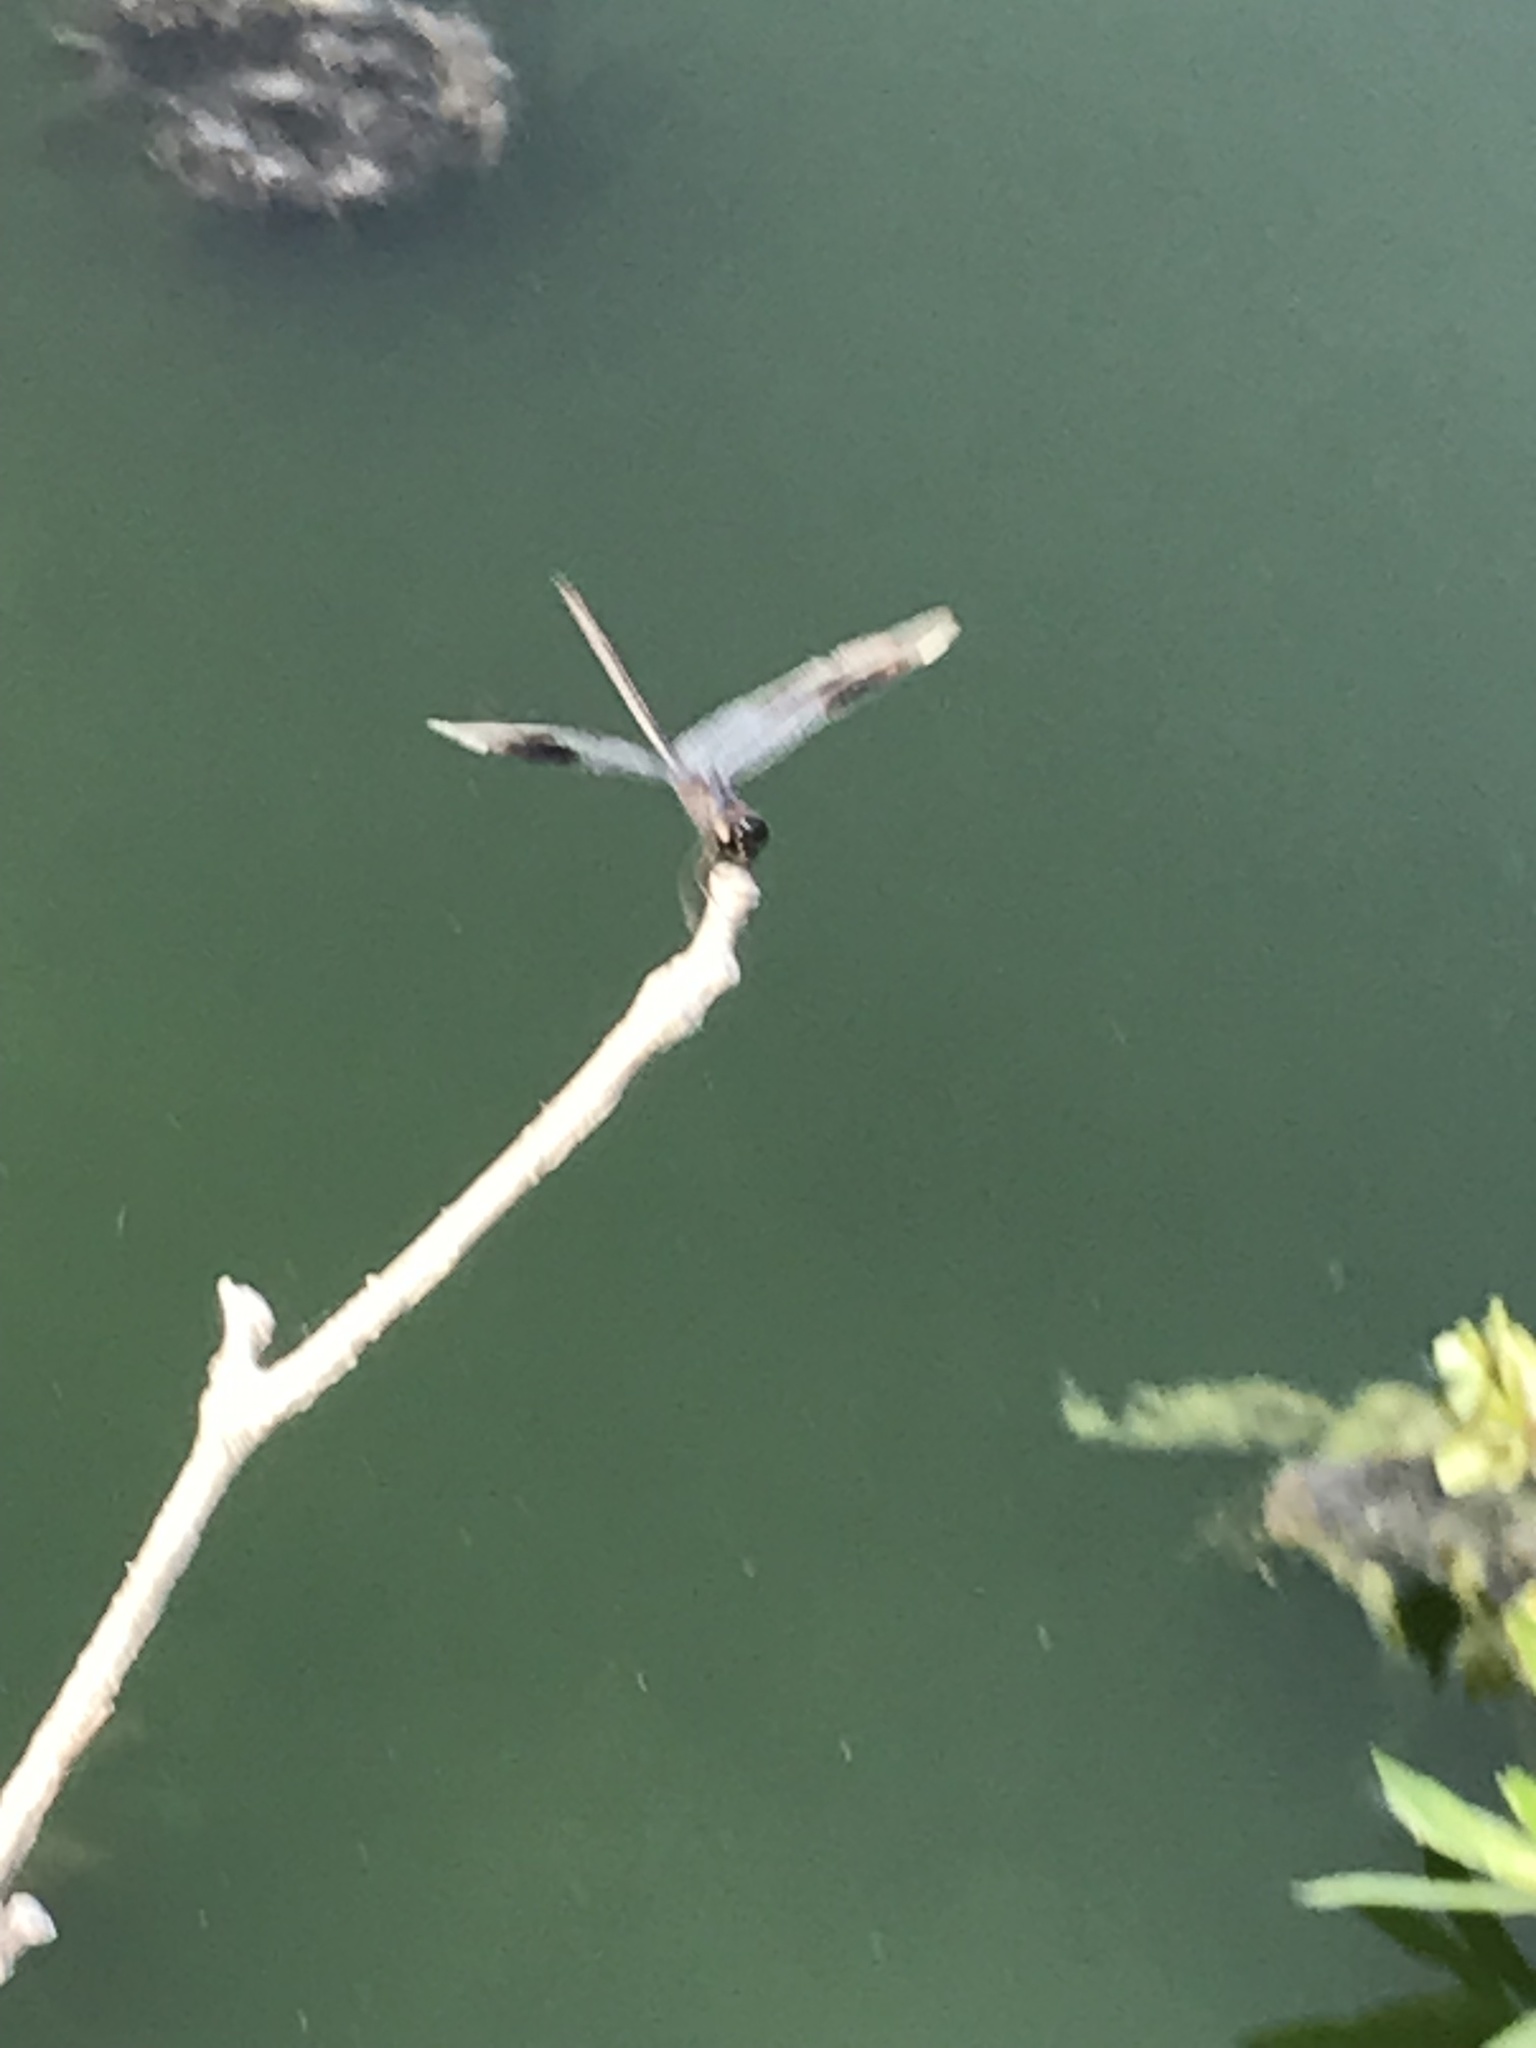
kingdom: Animalia
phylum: Arthropoda
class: Insecta
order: Odonata
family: Libellulidae
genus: Brachymesia
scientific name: Brachymesia gravida
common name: Four-spotted pennant
